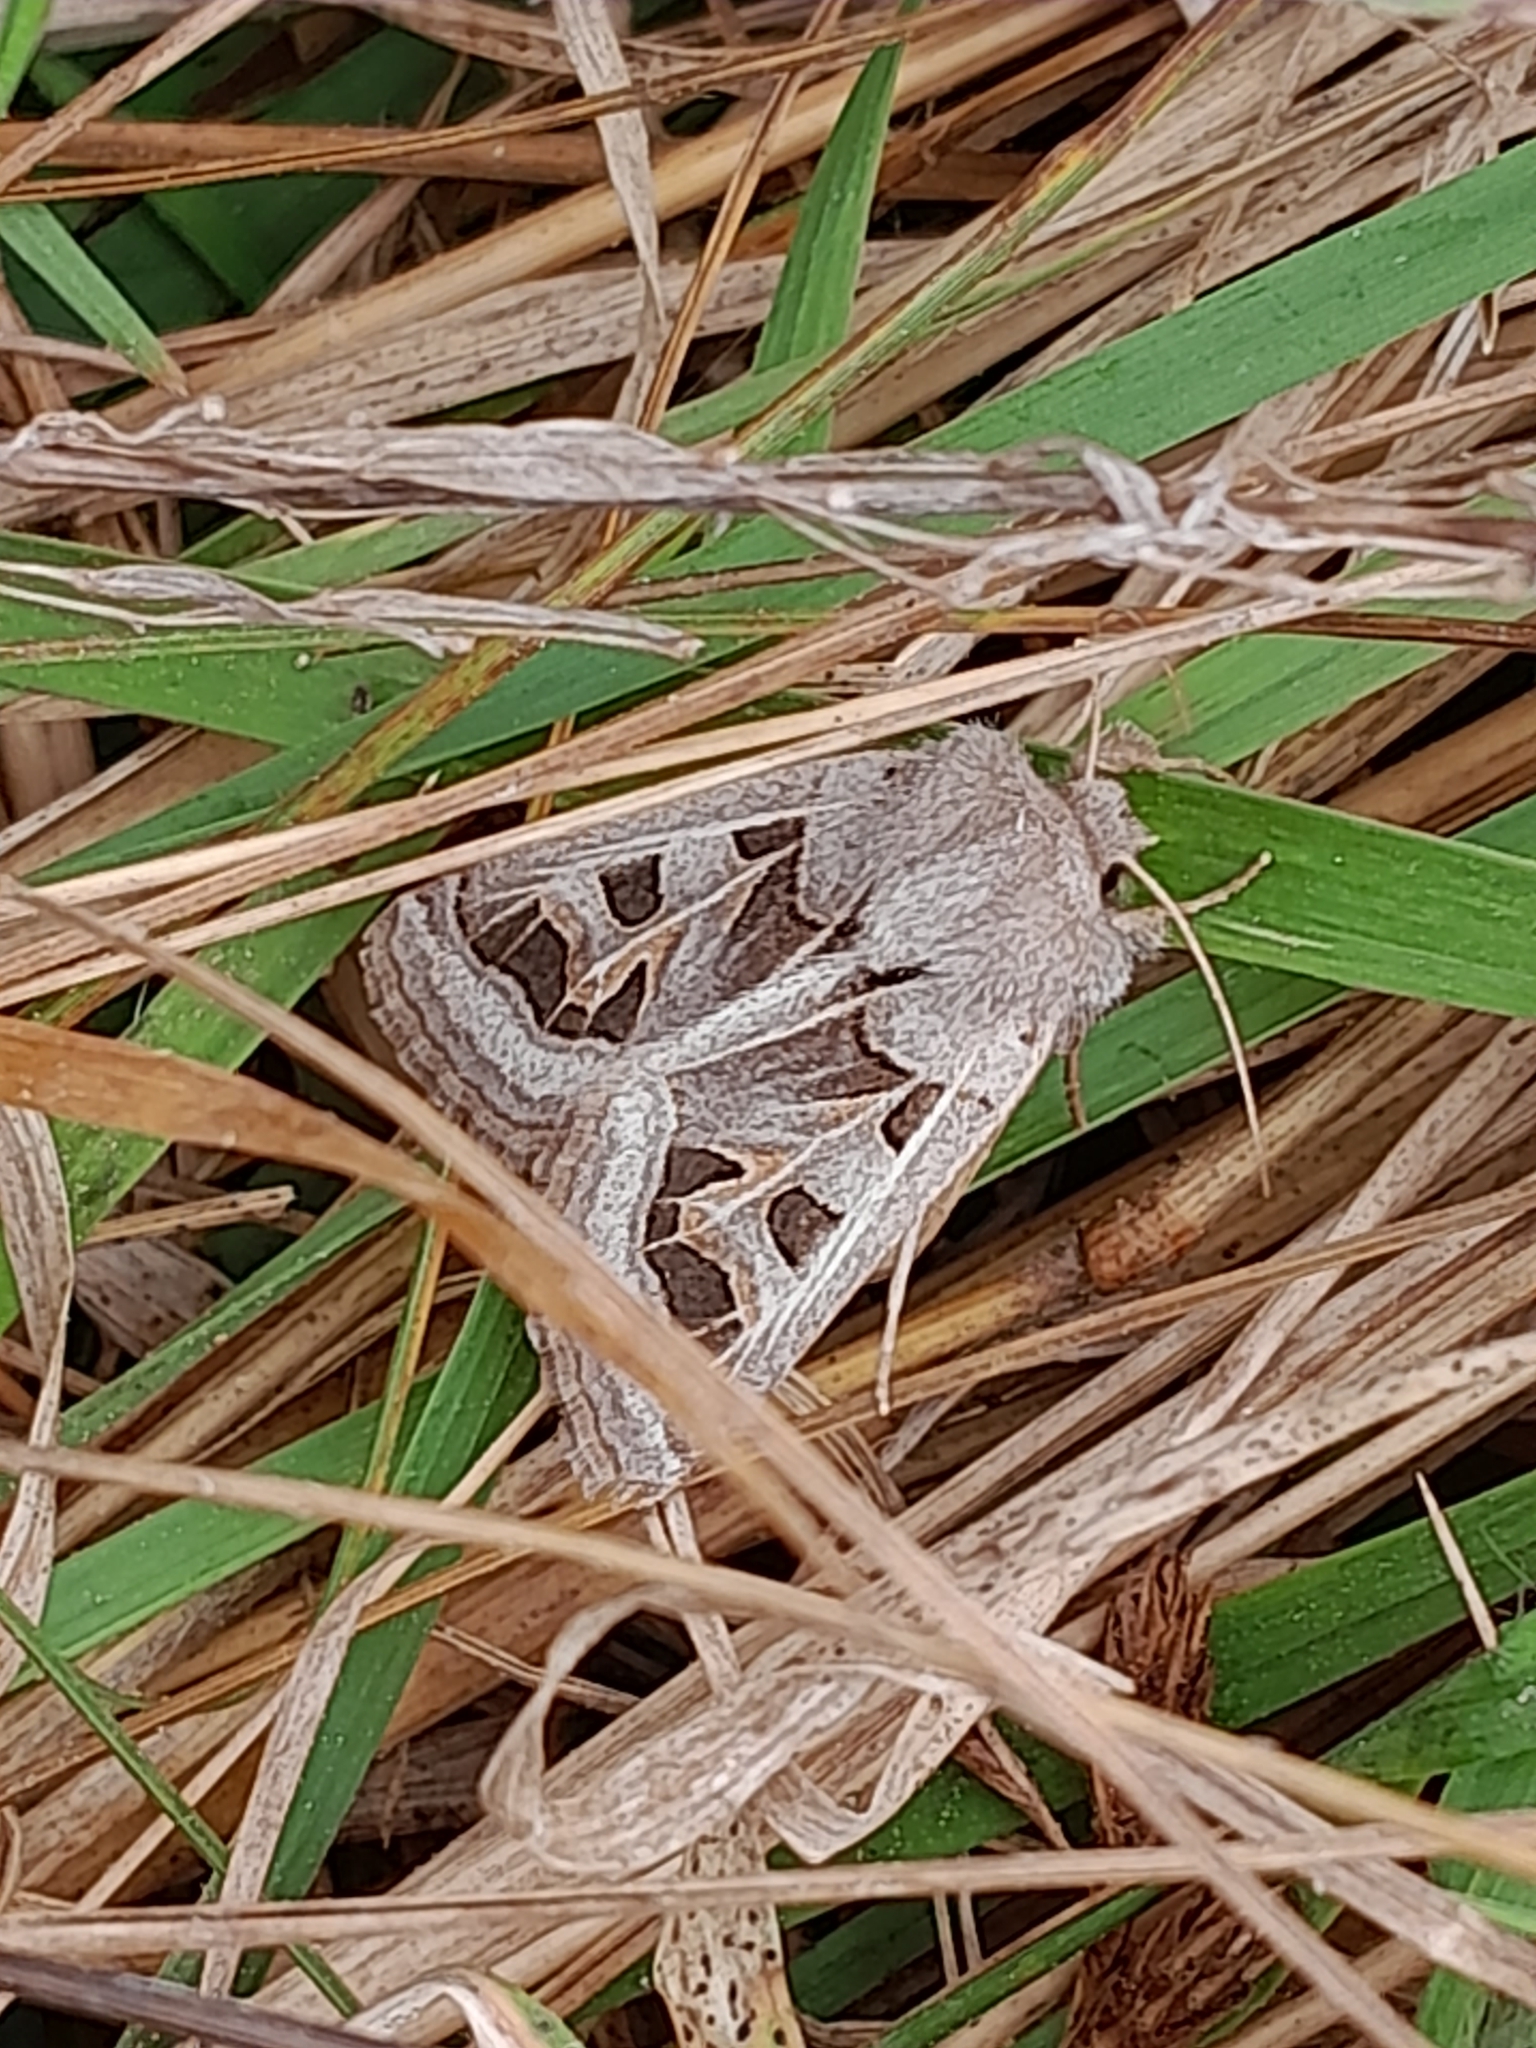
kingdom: Animalia
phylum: Arthropoda
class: Insecta
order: Lepidoptera
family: Noctuidae
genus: Episema
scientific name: Episema glaucina
